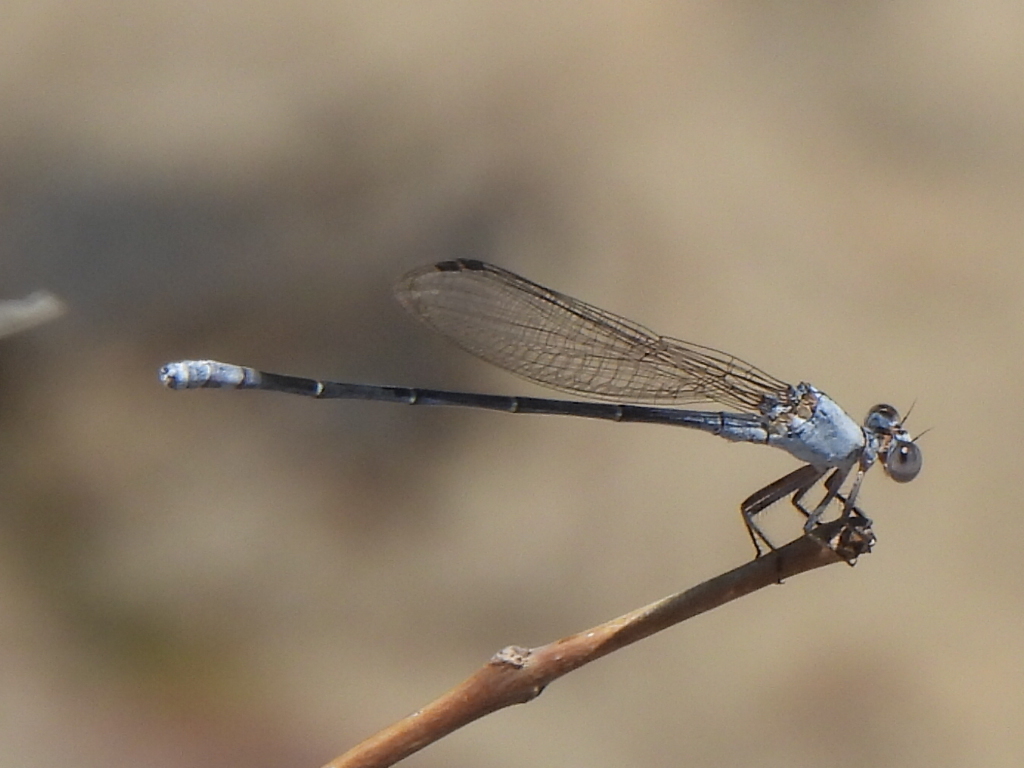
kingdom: Animalia
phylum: Arthropoda
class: Insecta
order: Odonata
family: Coenagrionidae
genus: Argia
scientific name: Argia moesta
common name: Powdered dancer
